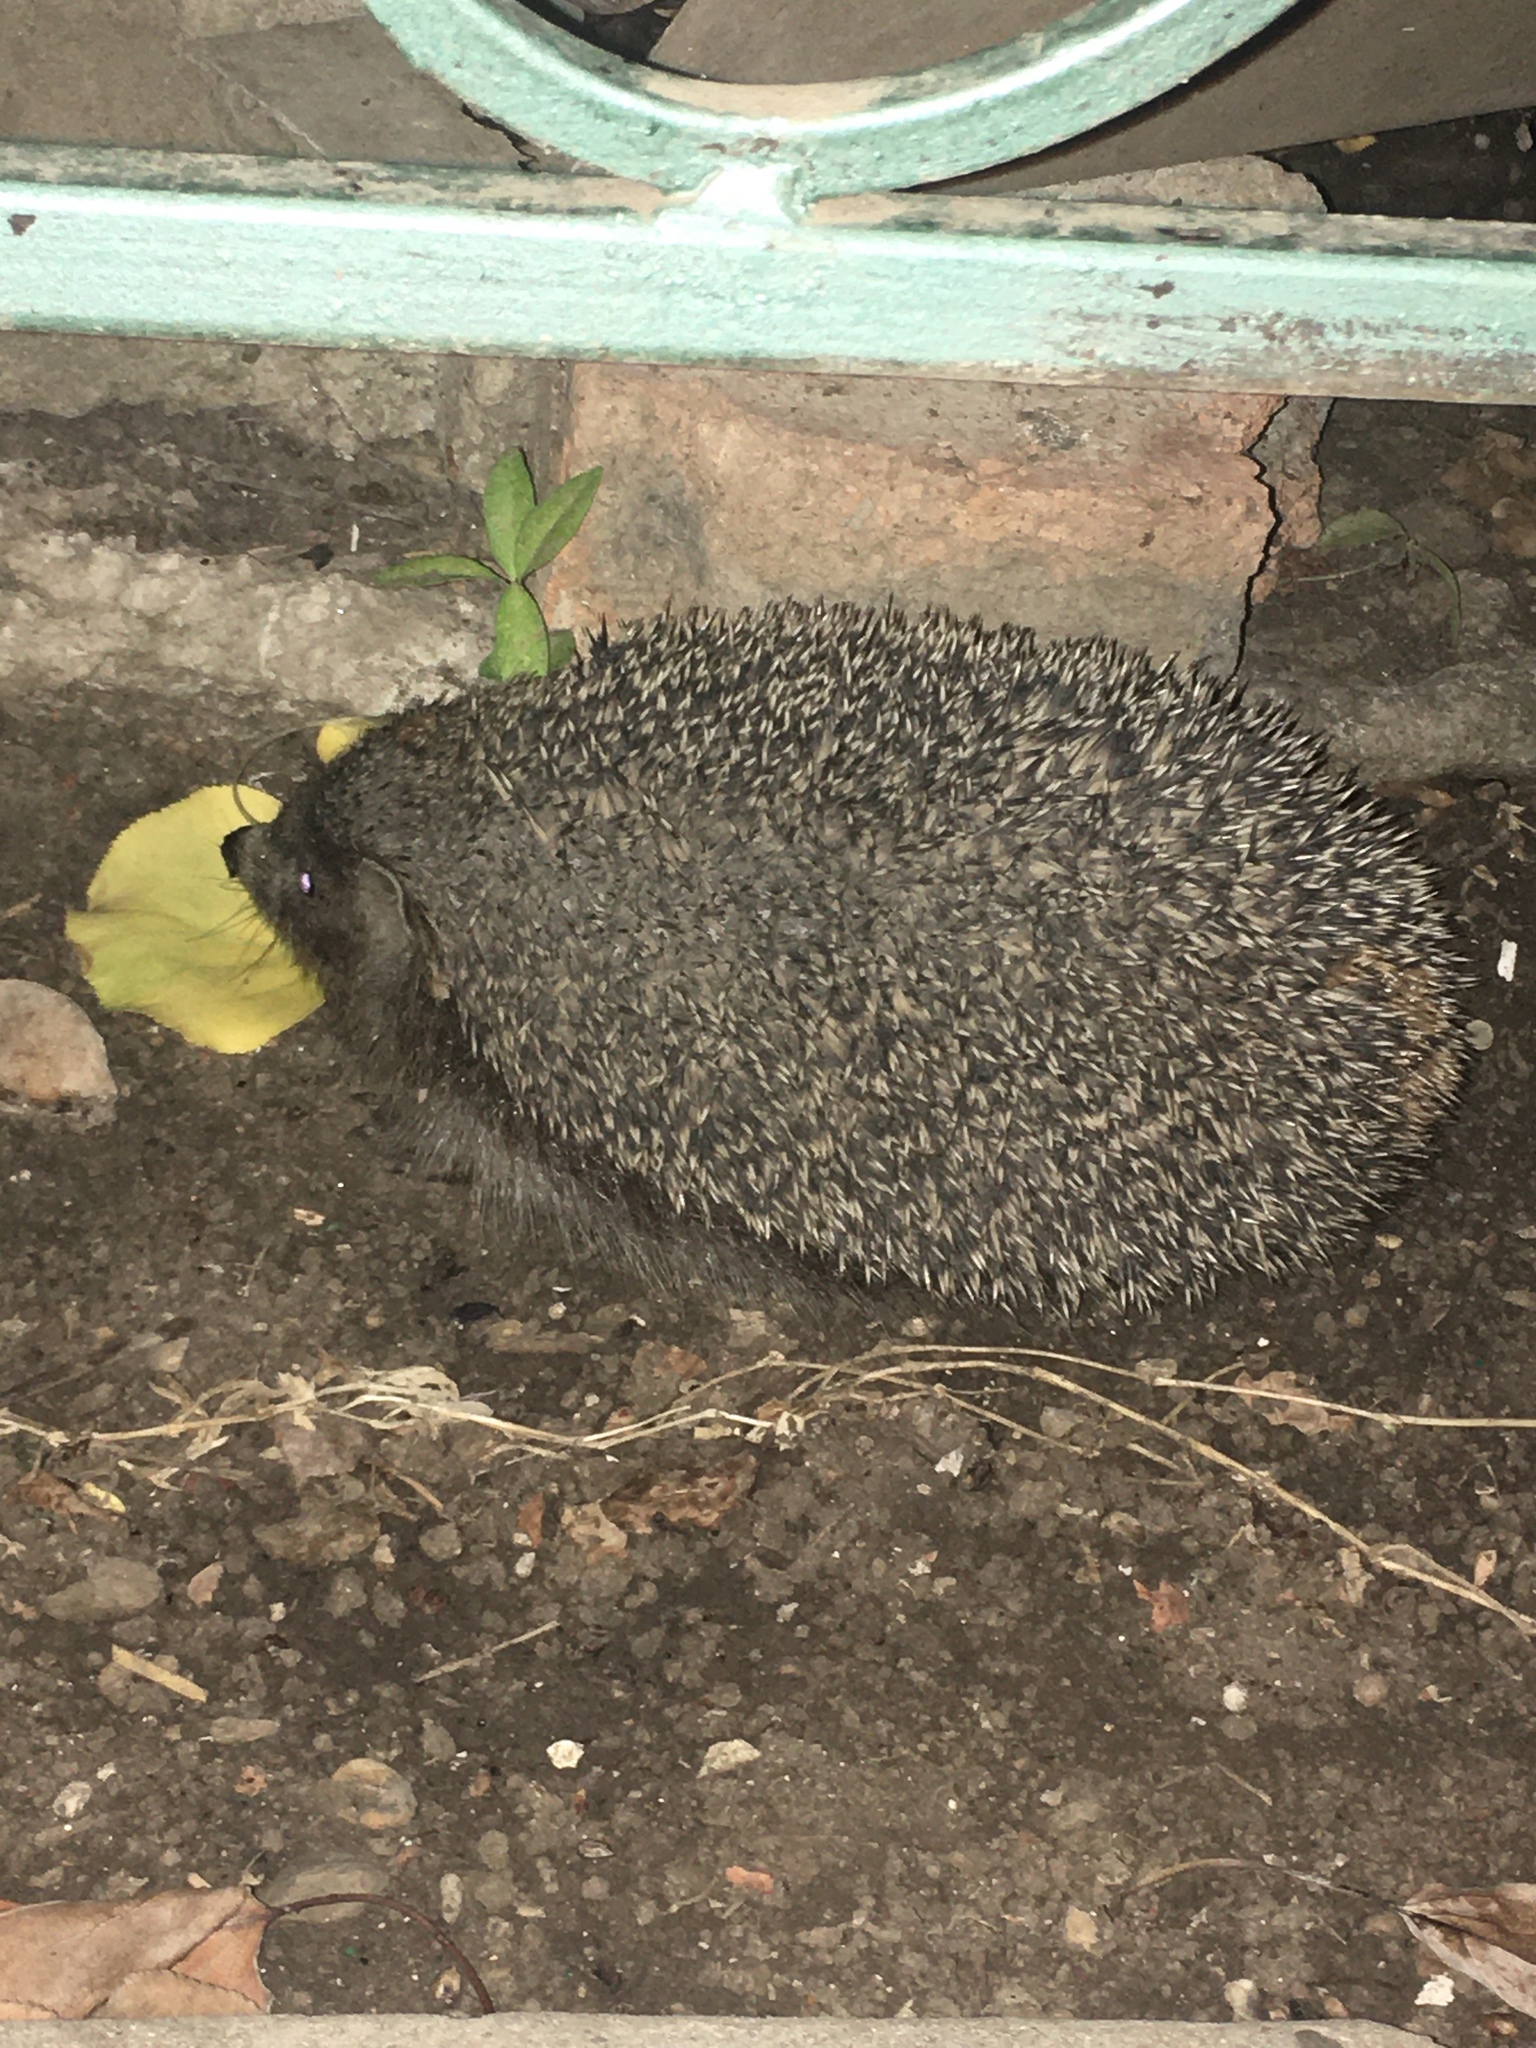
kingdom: Animalia
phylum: Chordata
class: Mammalia
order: Erinaceomorpha
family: Erinaceidae
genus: Erinaceus
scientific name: Erinaceus roumanicus
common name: Northern white-breasted hedgehog
